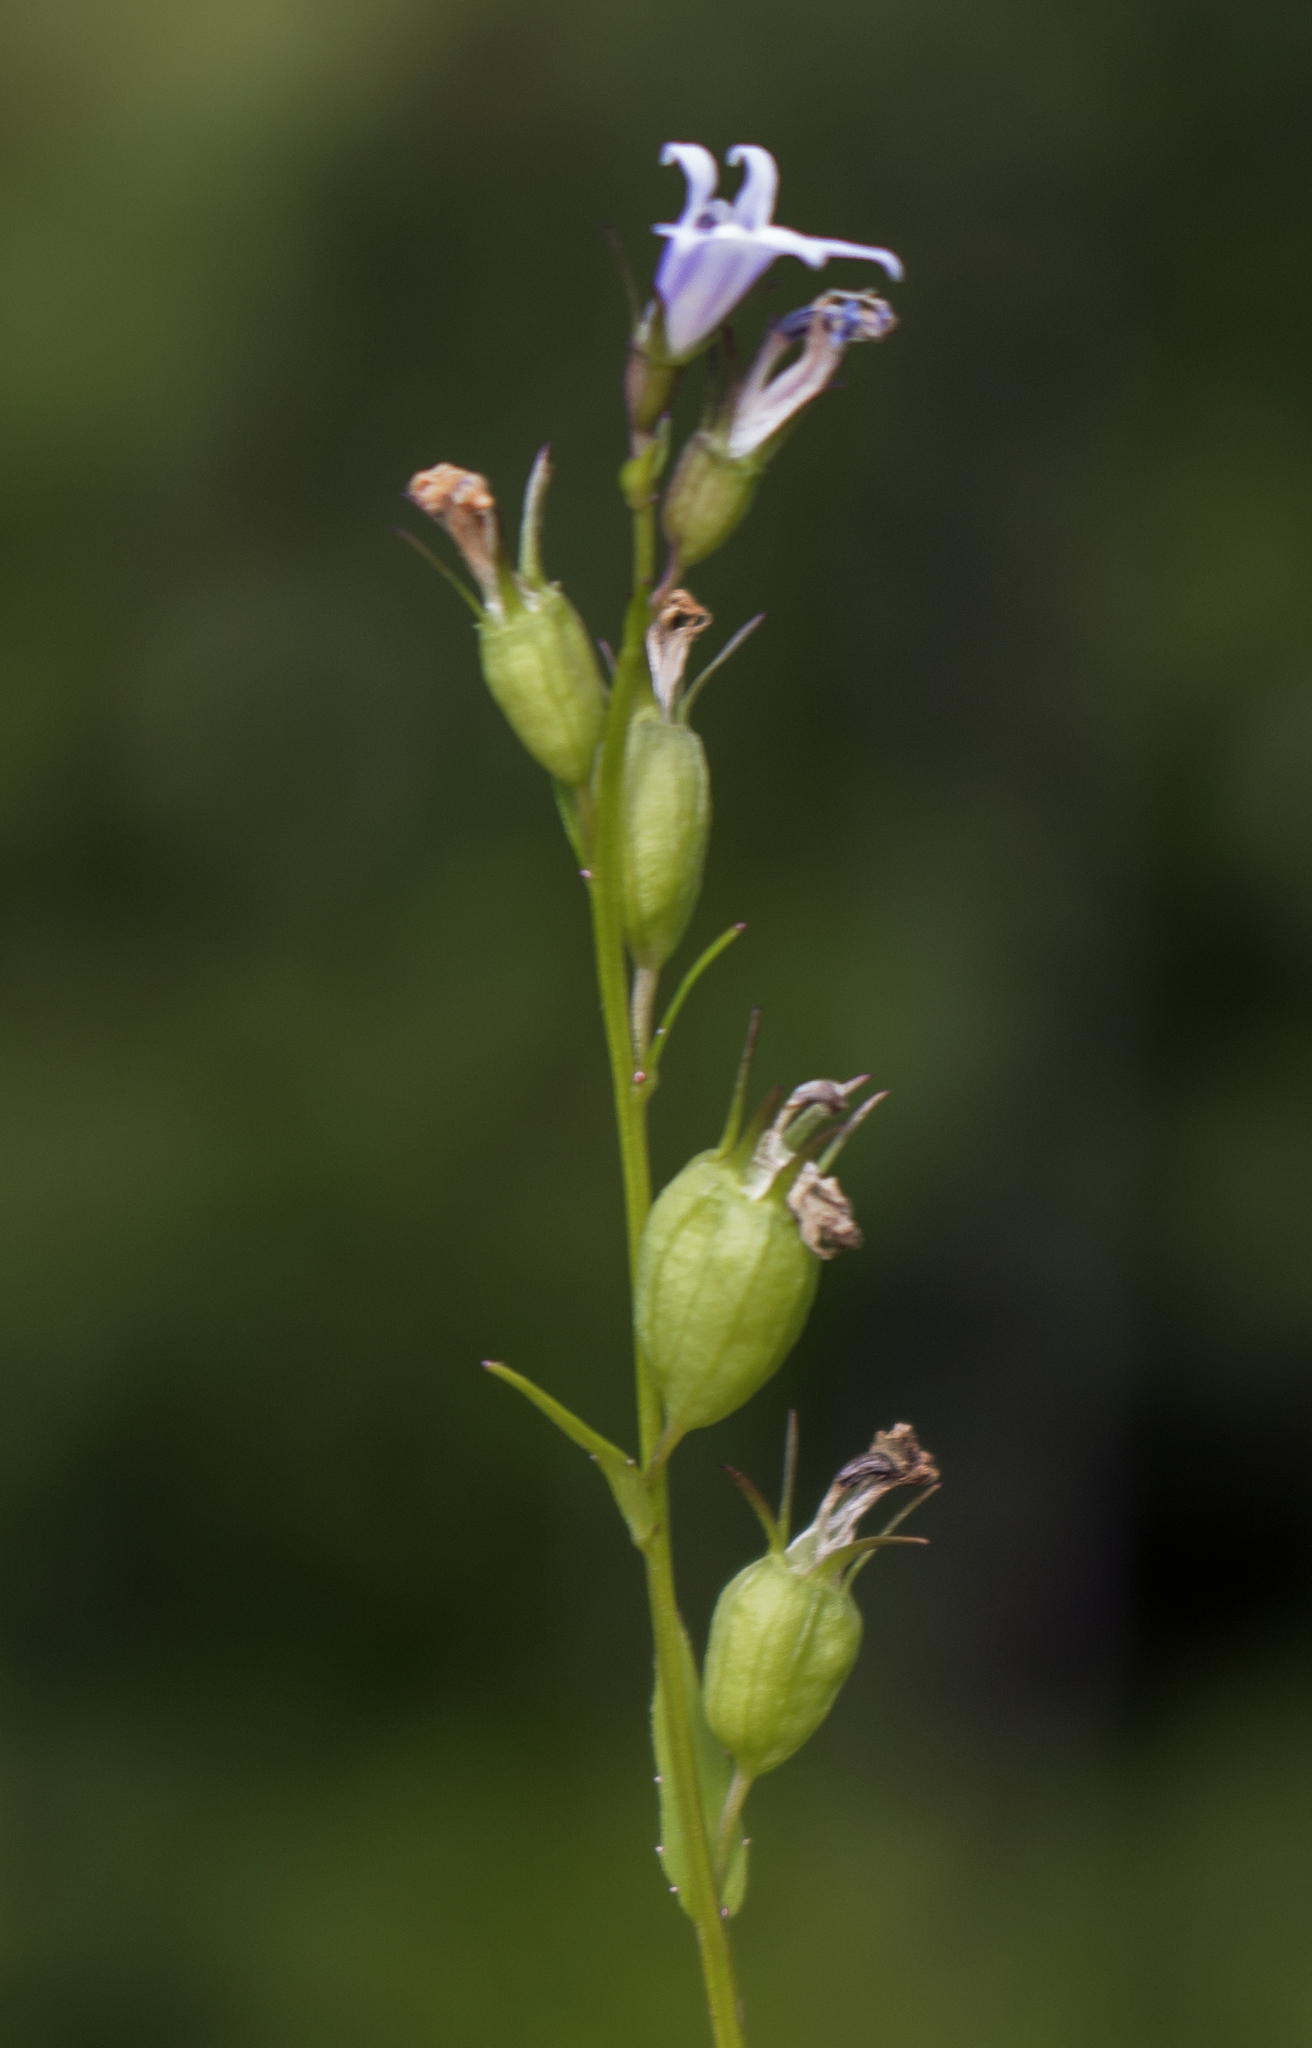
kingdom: Plantae
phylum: Tracheophyta
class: Magnoliopsida
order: Asterales
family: Campanulaceae
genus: Lobelia
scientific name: Lobelia inflata
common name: Indian tobacco
